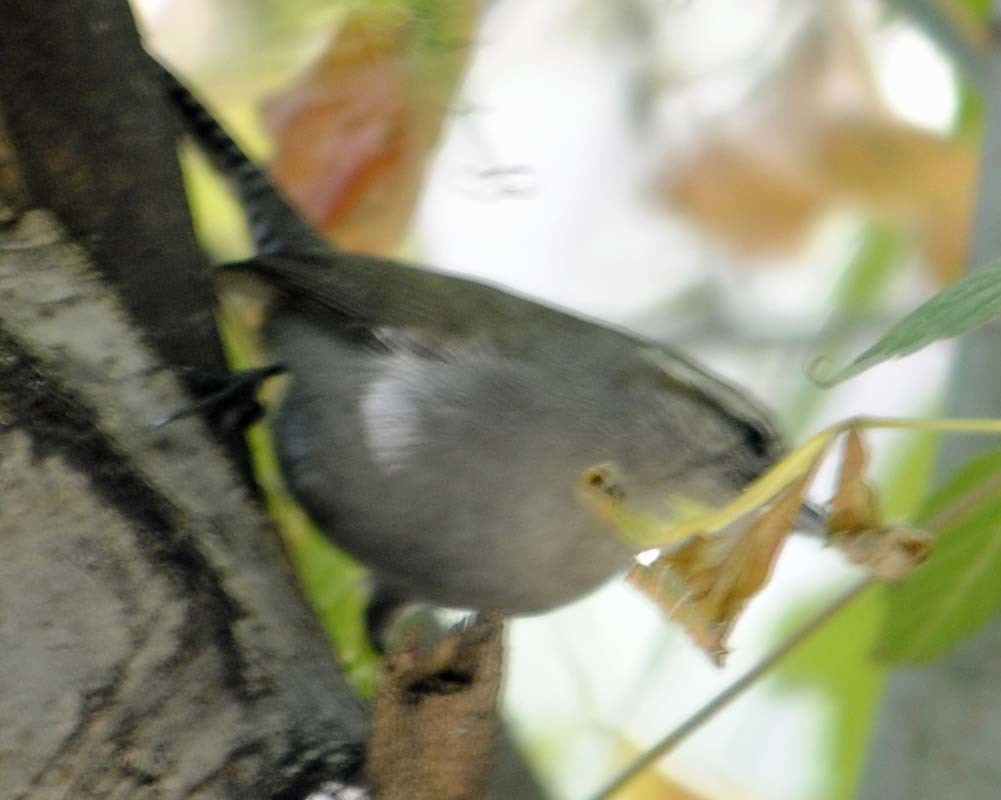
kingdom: Animalia
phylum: Chordata
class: Aves
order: Passeriformes
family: Troglodytidae
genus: Thryomanes
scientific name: Thryomanes bewickii
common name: Bewick's wren
